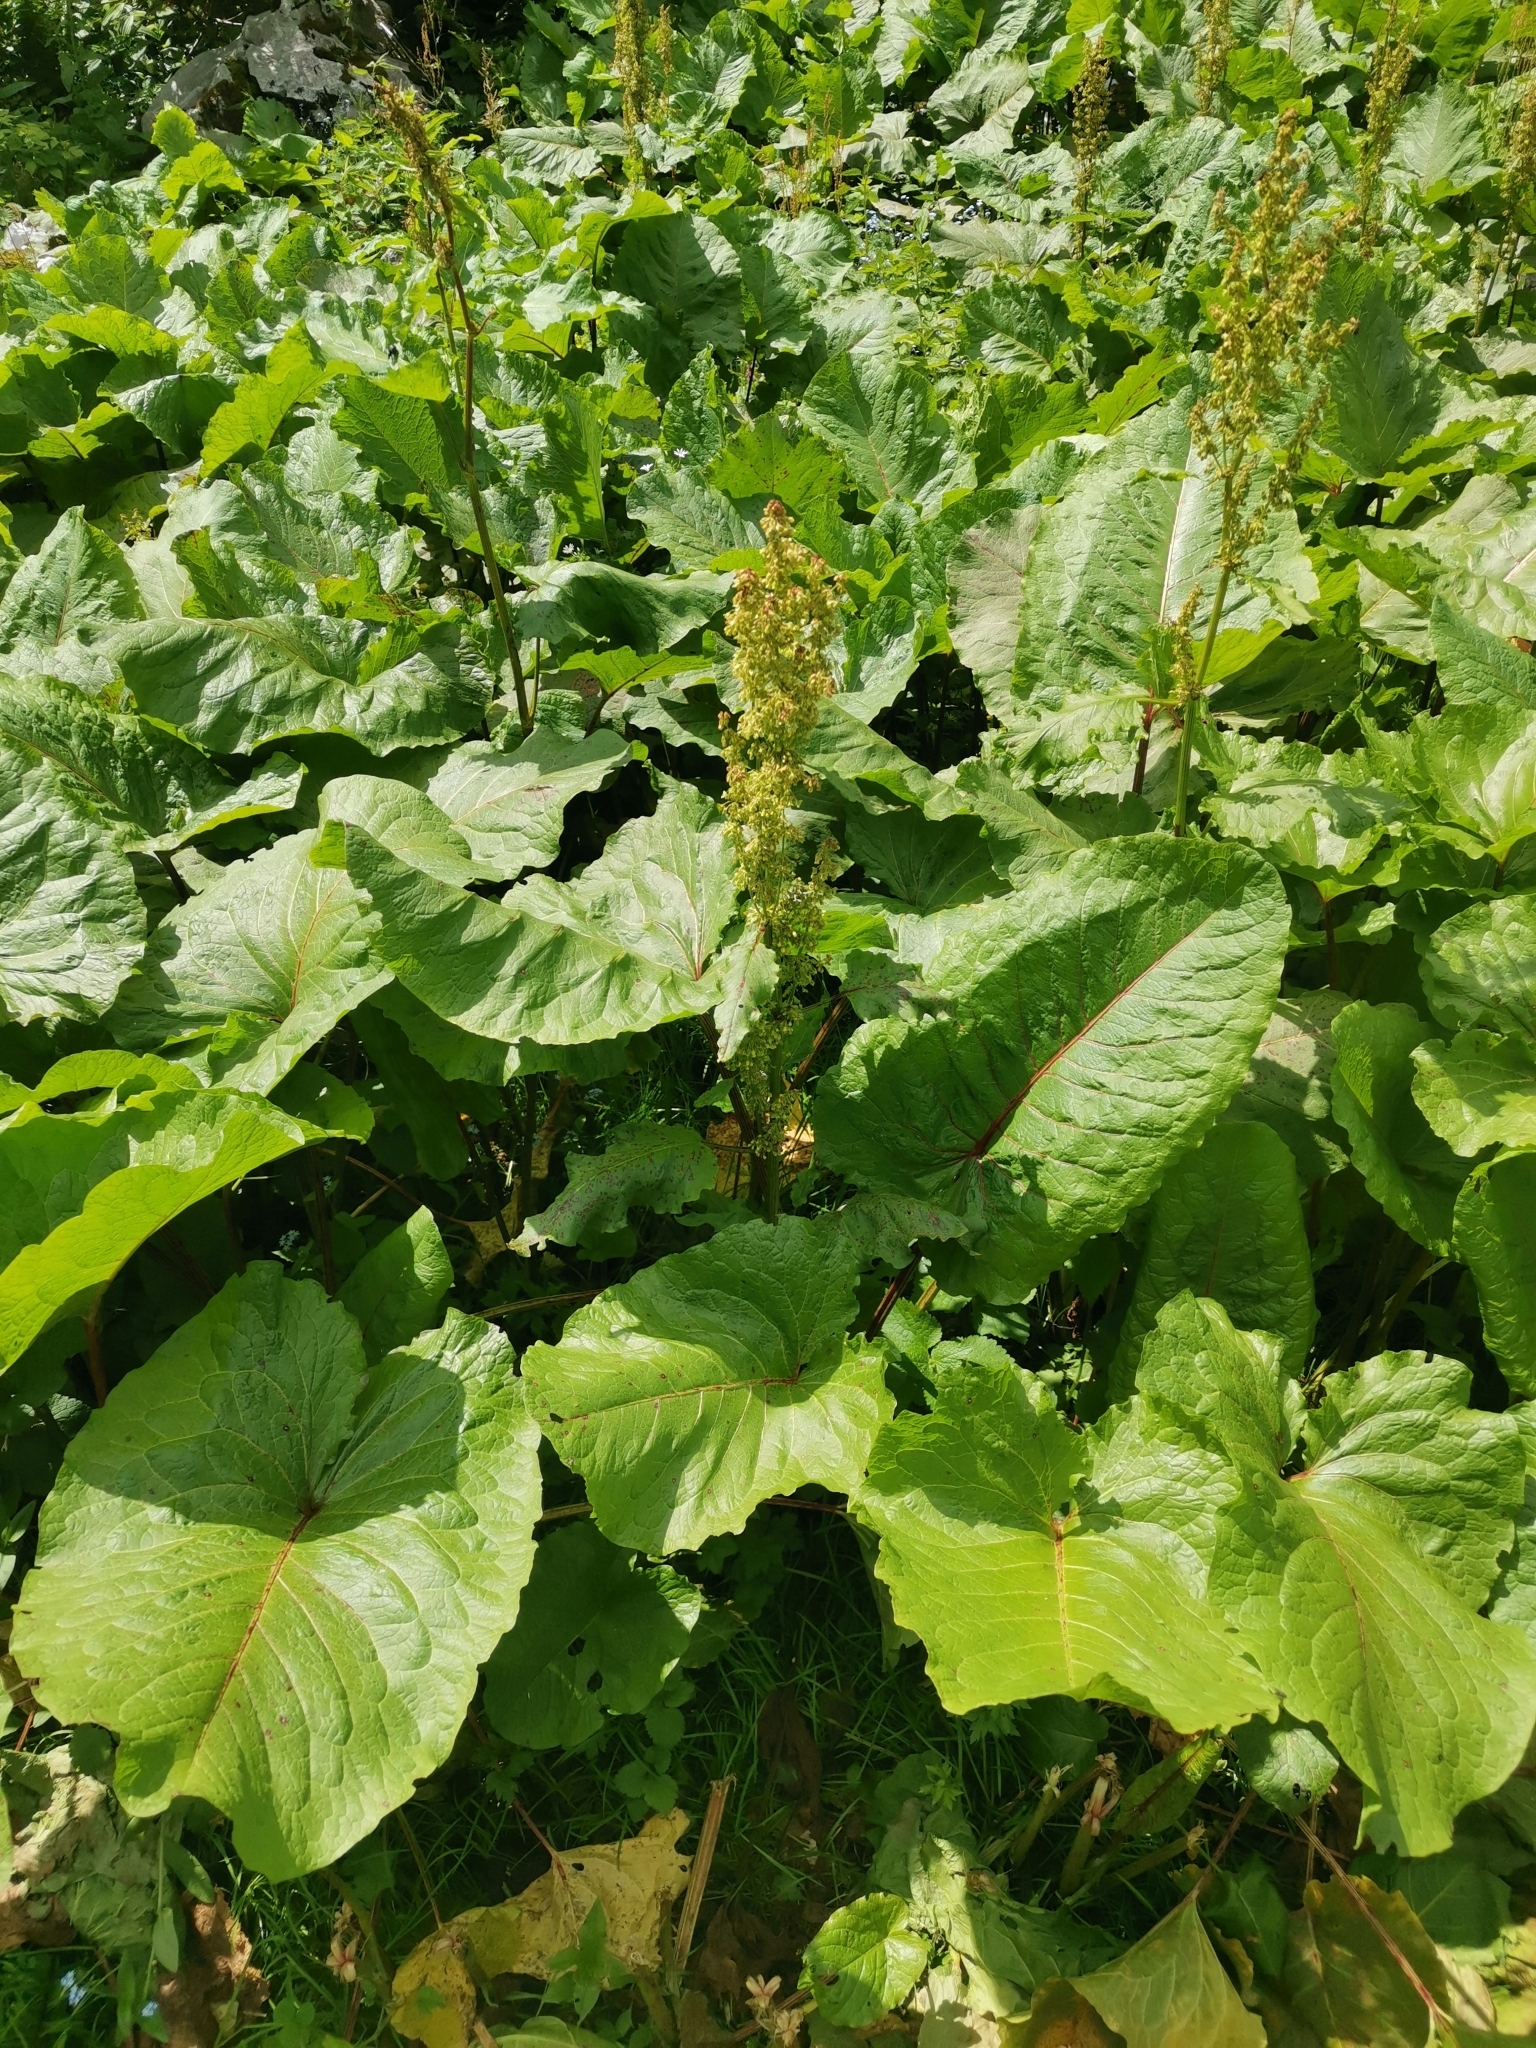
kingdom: Plantae
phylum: Tracheophyta
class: Magnoliopsida
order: Caryophyllales
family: Polygonaceae
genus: Rumex
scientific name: Rumex alpinus
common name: Alpine dock
